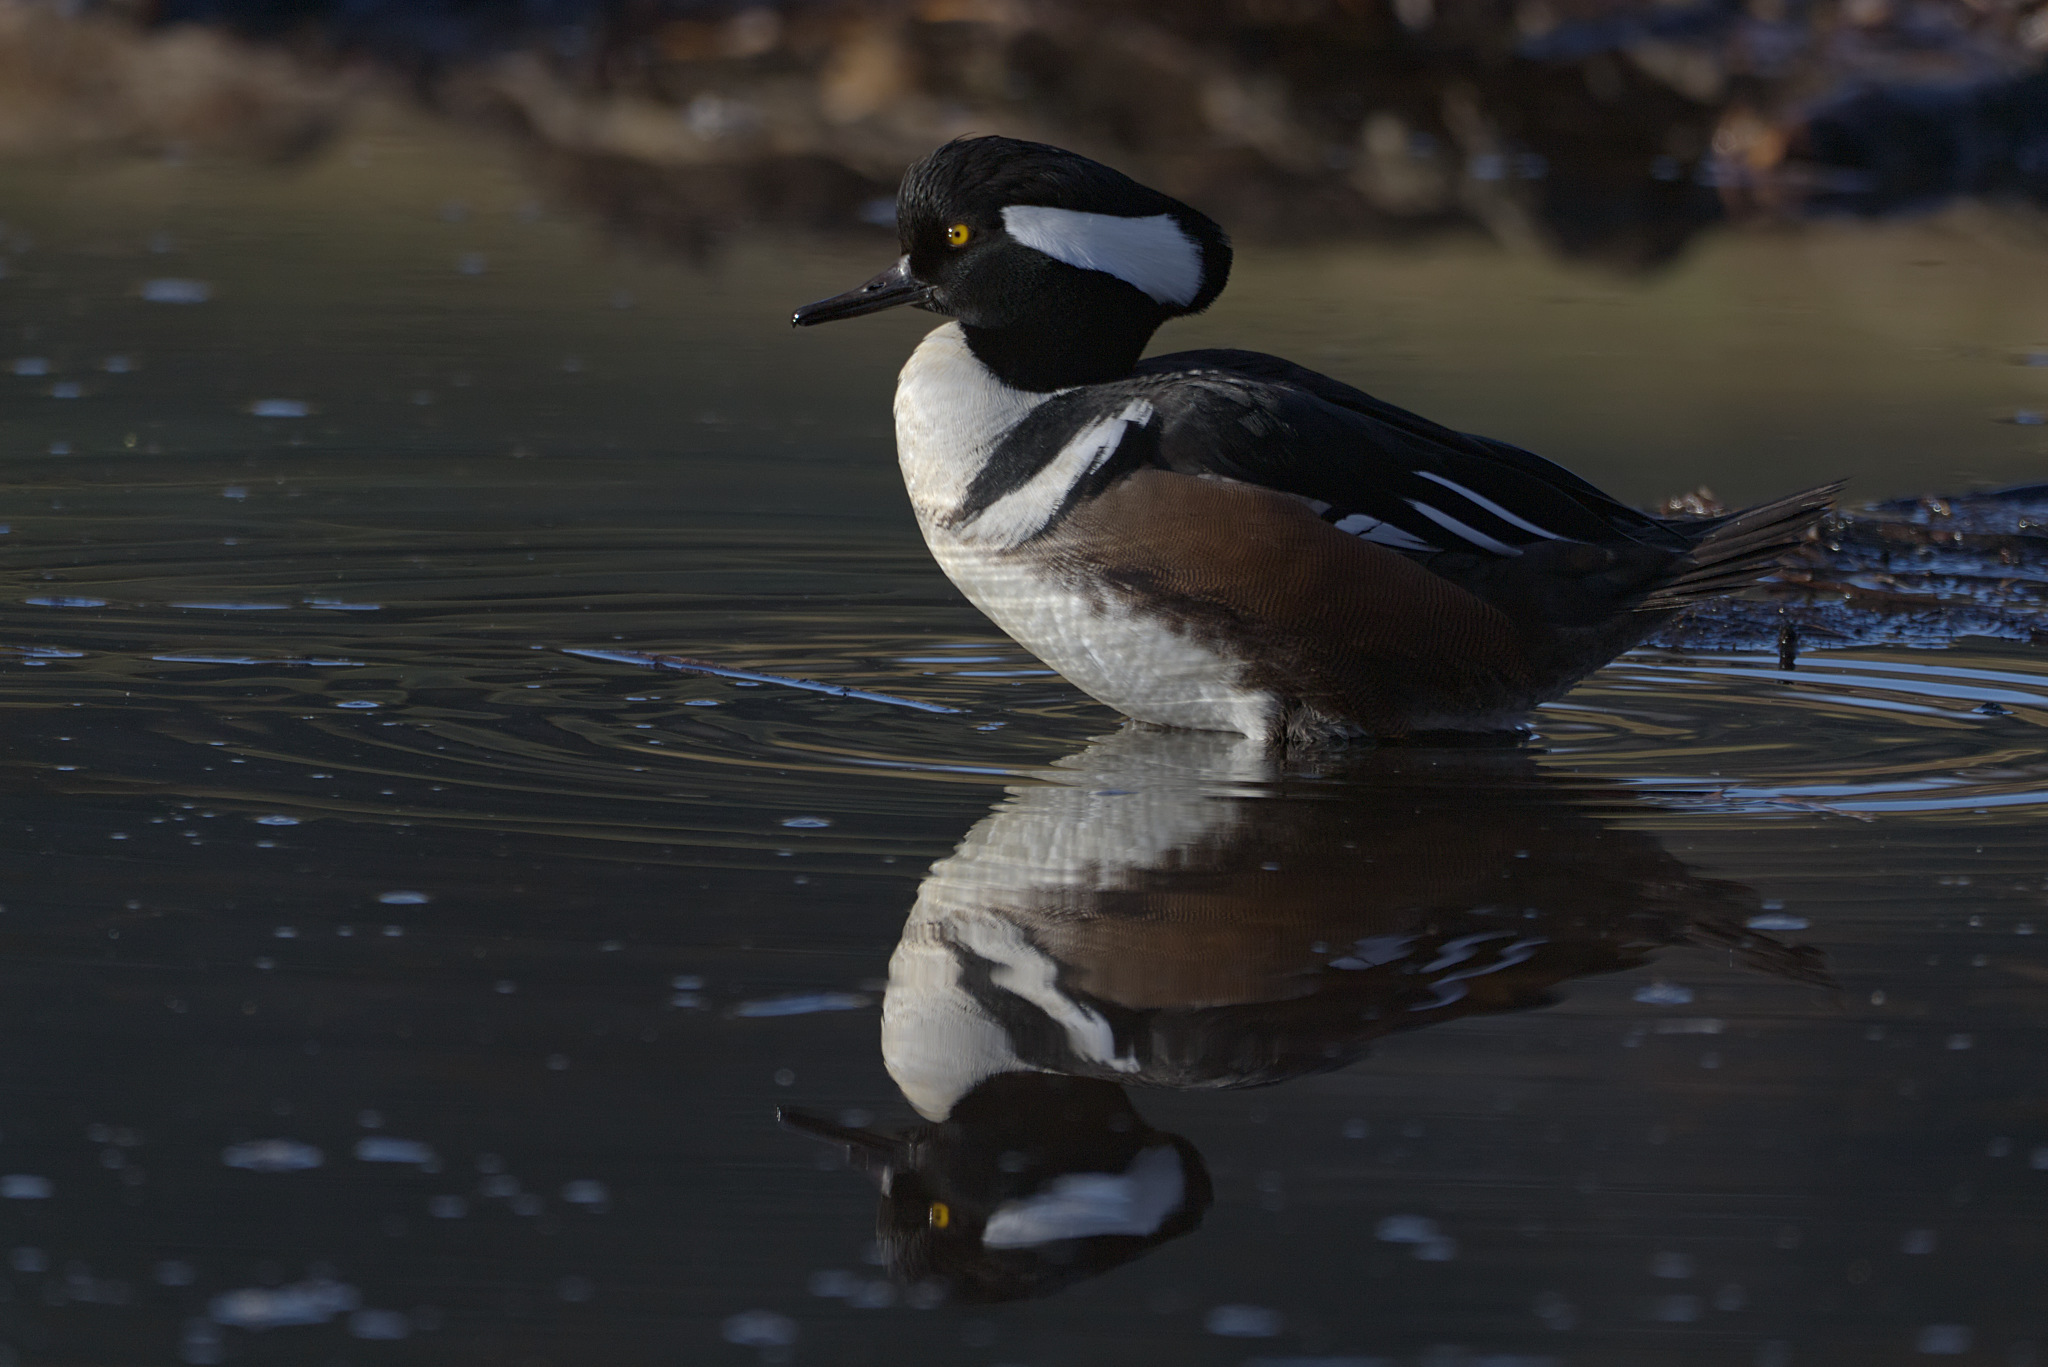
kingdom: Animalia
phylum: Chordata
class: Aves
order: Anseriformes
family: Anatidae
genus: Lophodytes
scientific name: Lophodytes cucullatus
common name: Hooded merganser
